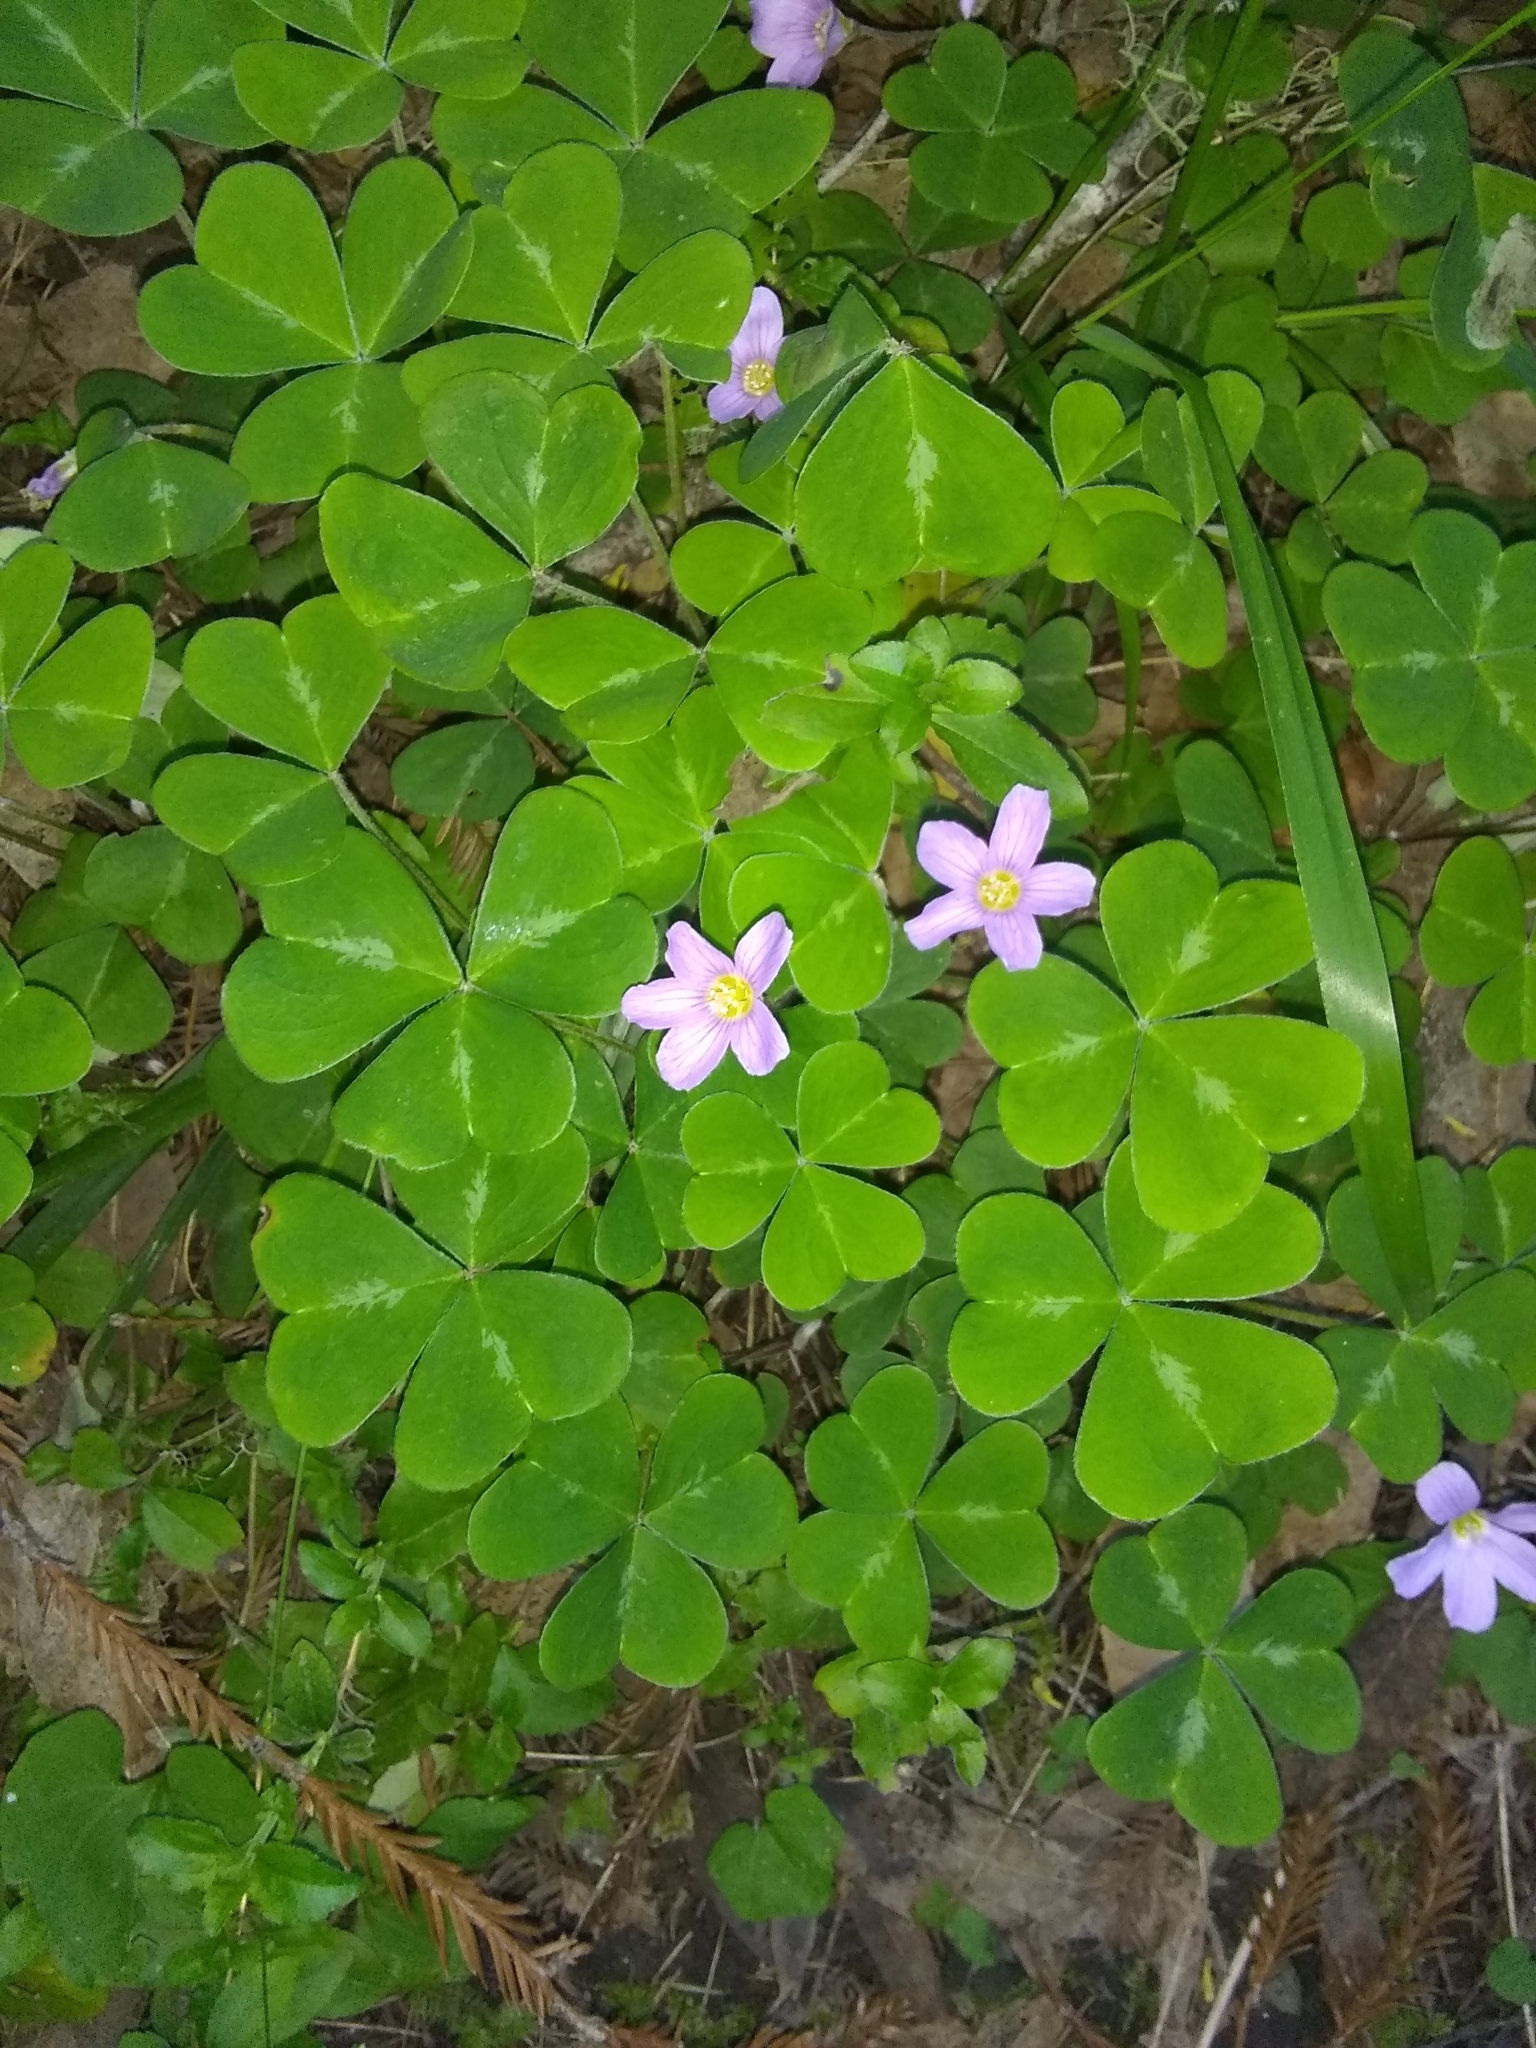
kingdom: Plantae
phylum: Tracheophyta
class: Magnoliopsida
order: Oxalidales
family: Oxalidaceae
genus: Oxalis
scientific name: Oxalis oregana
